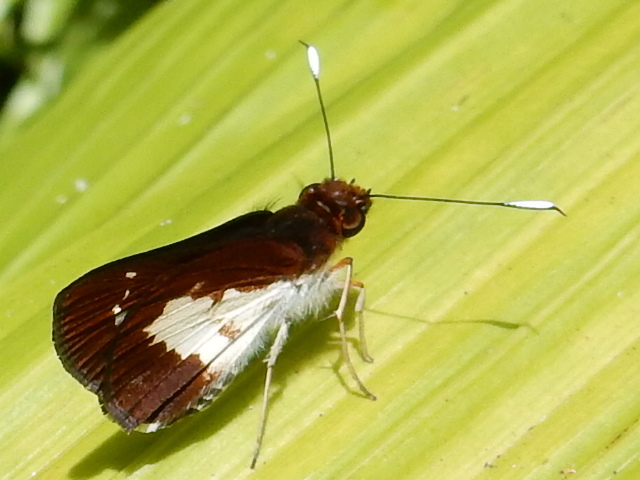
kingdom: Animalia
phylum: Arthropoda
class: Insecta
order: Lepidoptera
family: Hesperiidae
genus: Sabera
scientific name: Sabera caesina
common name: White-clubbed swift
